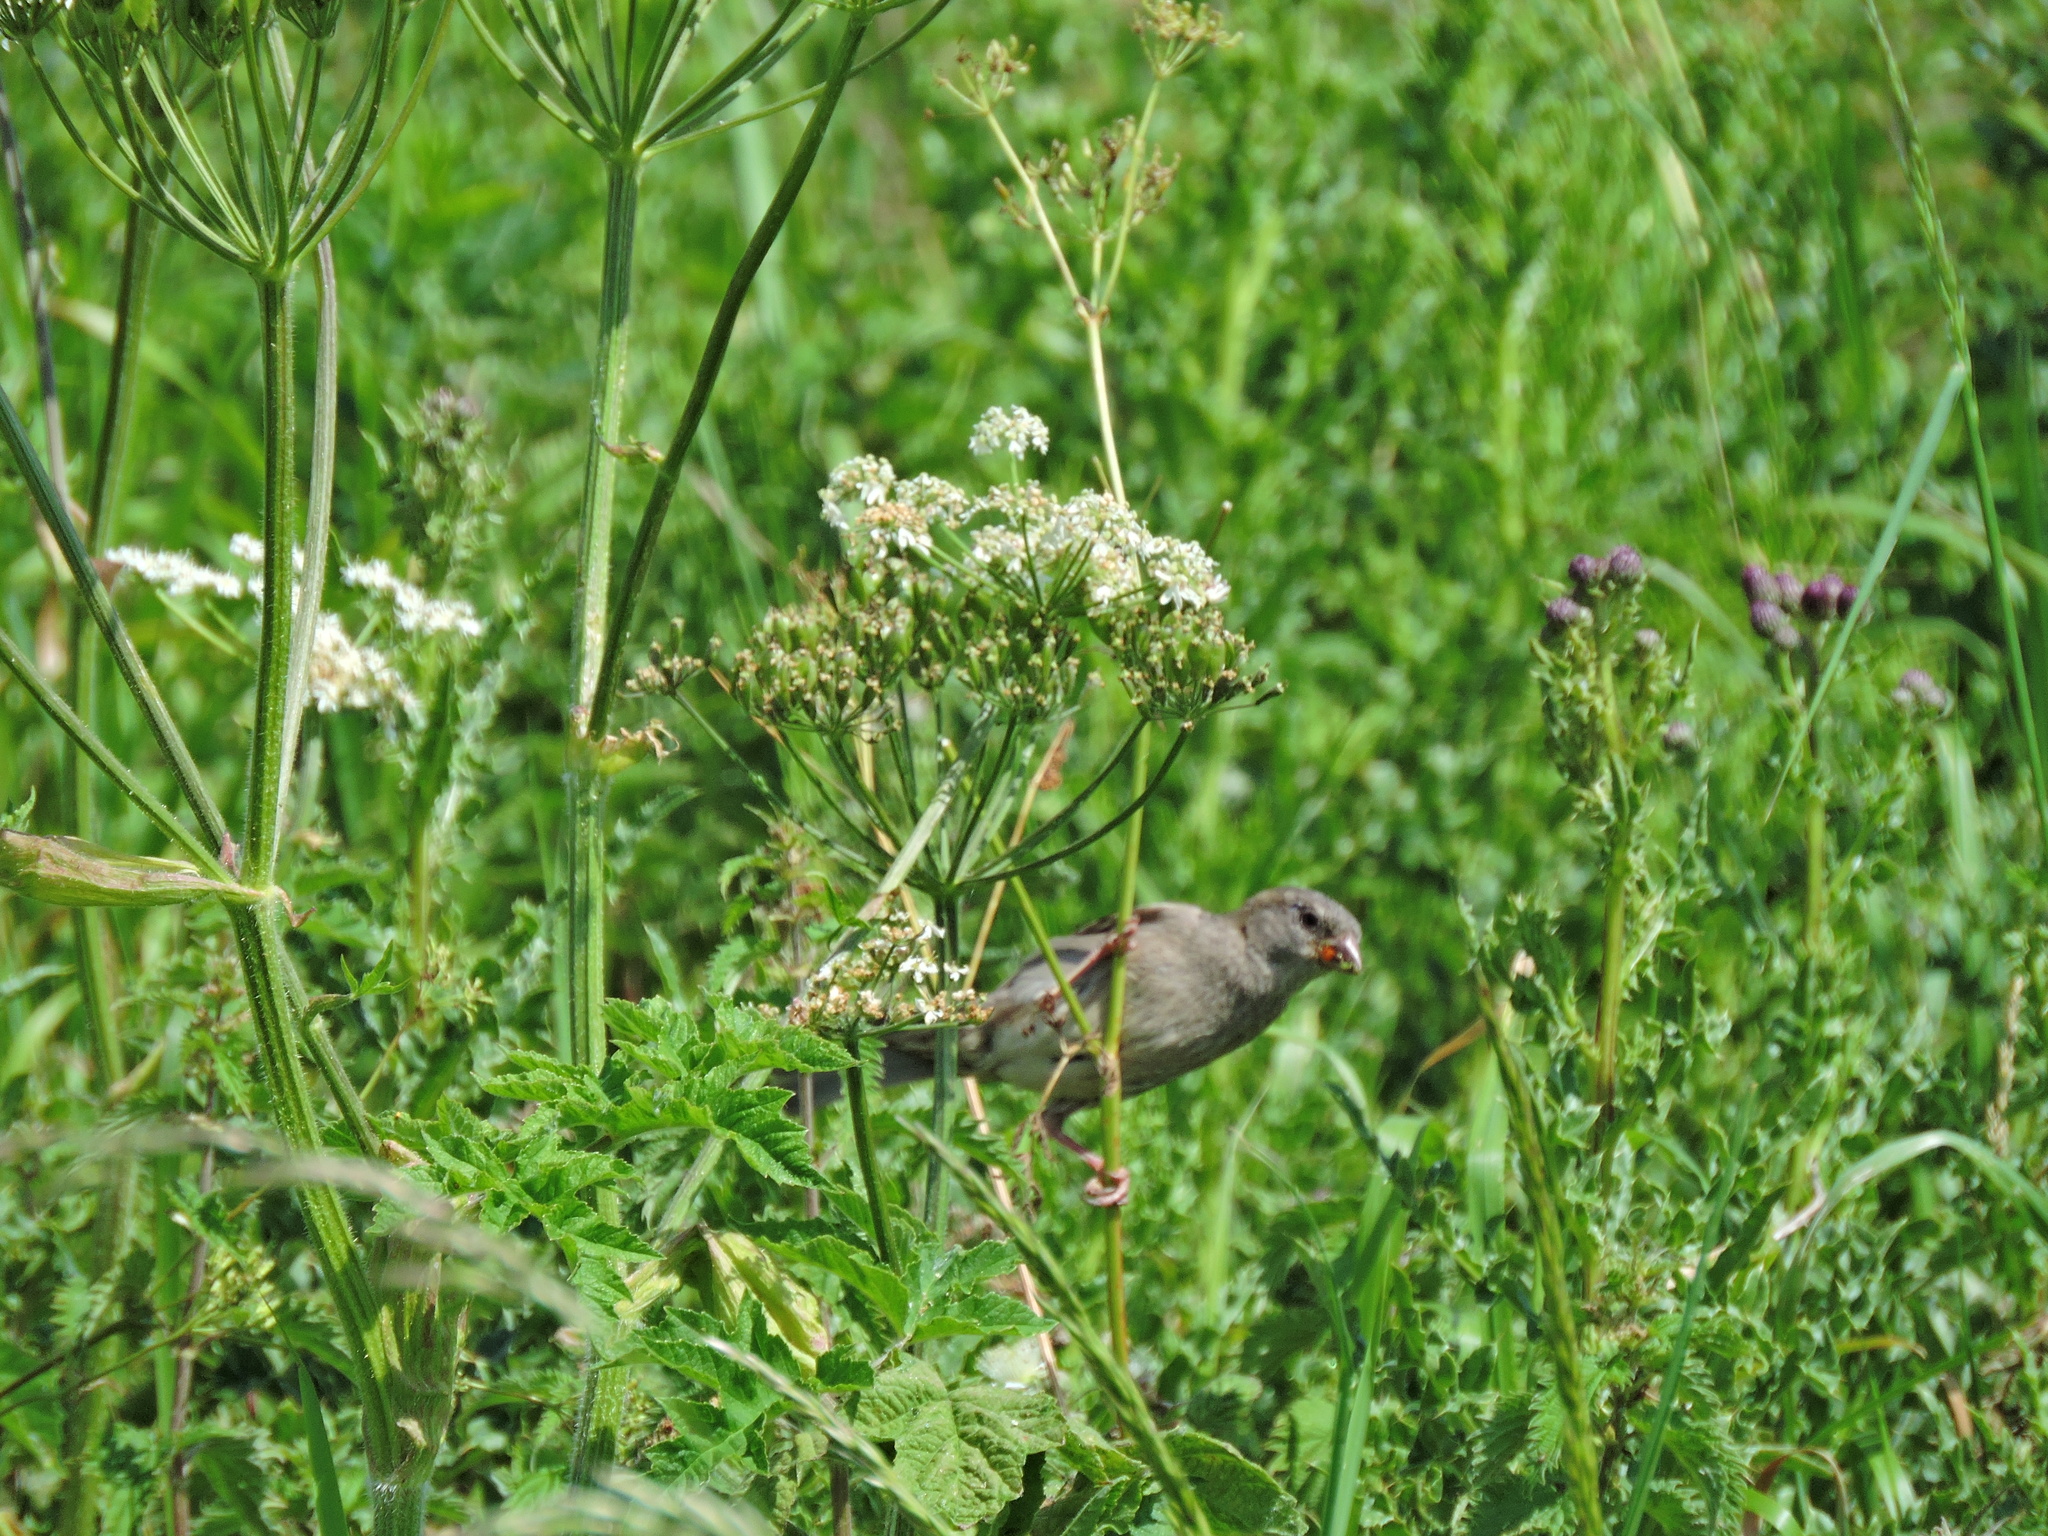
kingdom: Animalia
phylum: Chordata
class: Aves
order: Passeriformes
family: Passeridae
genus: Passer
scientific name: Passer domesticus
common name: House sparrow
